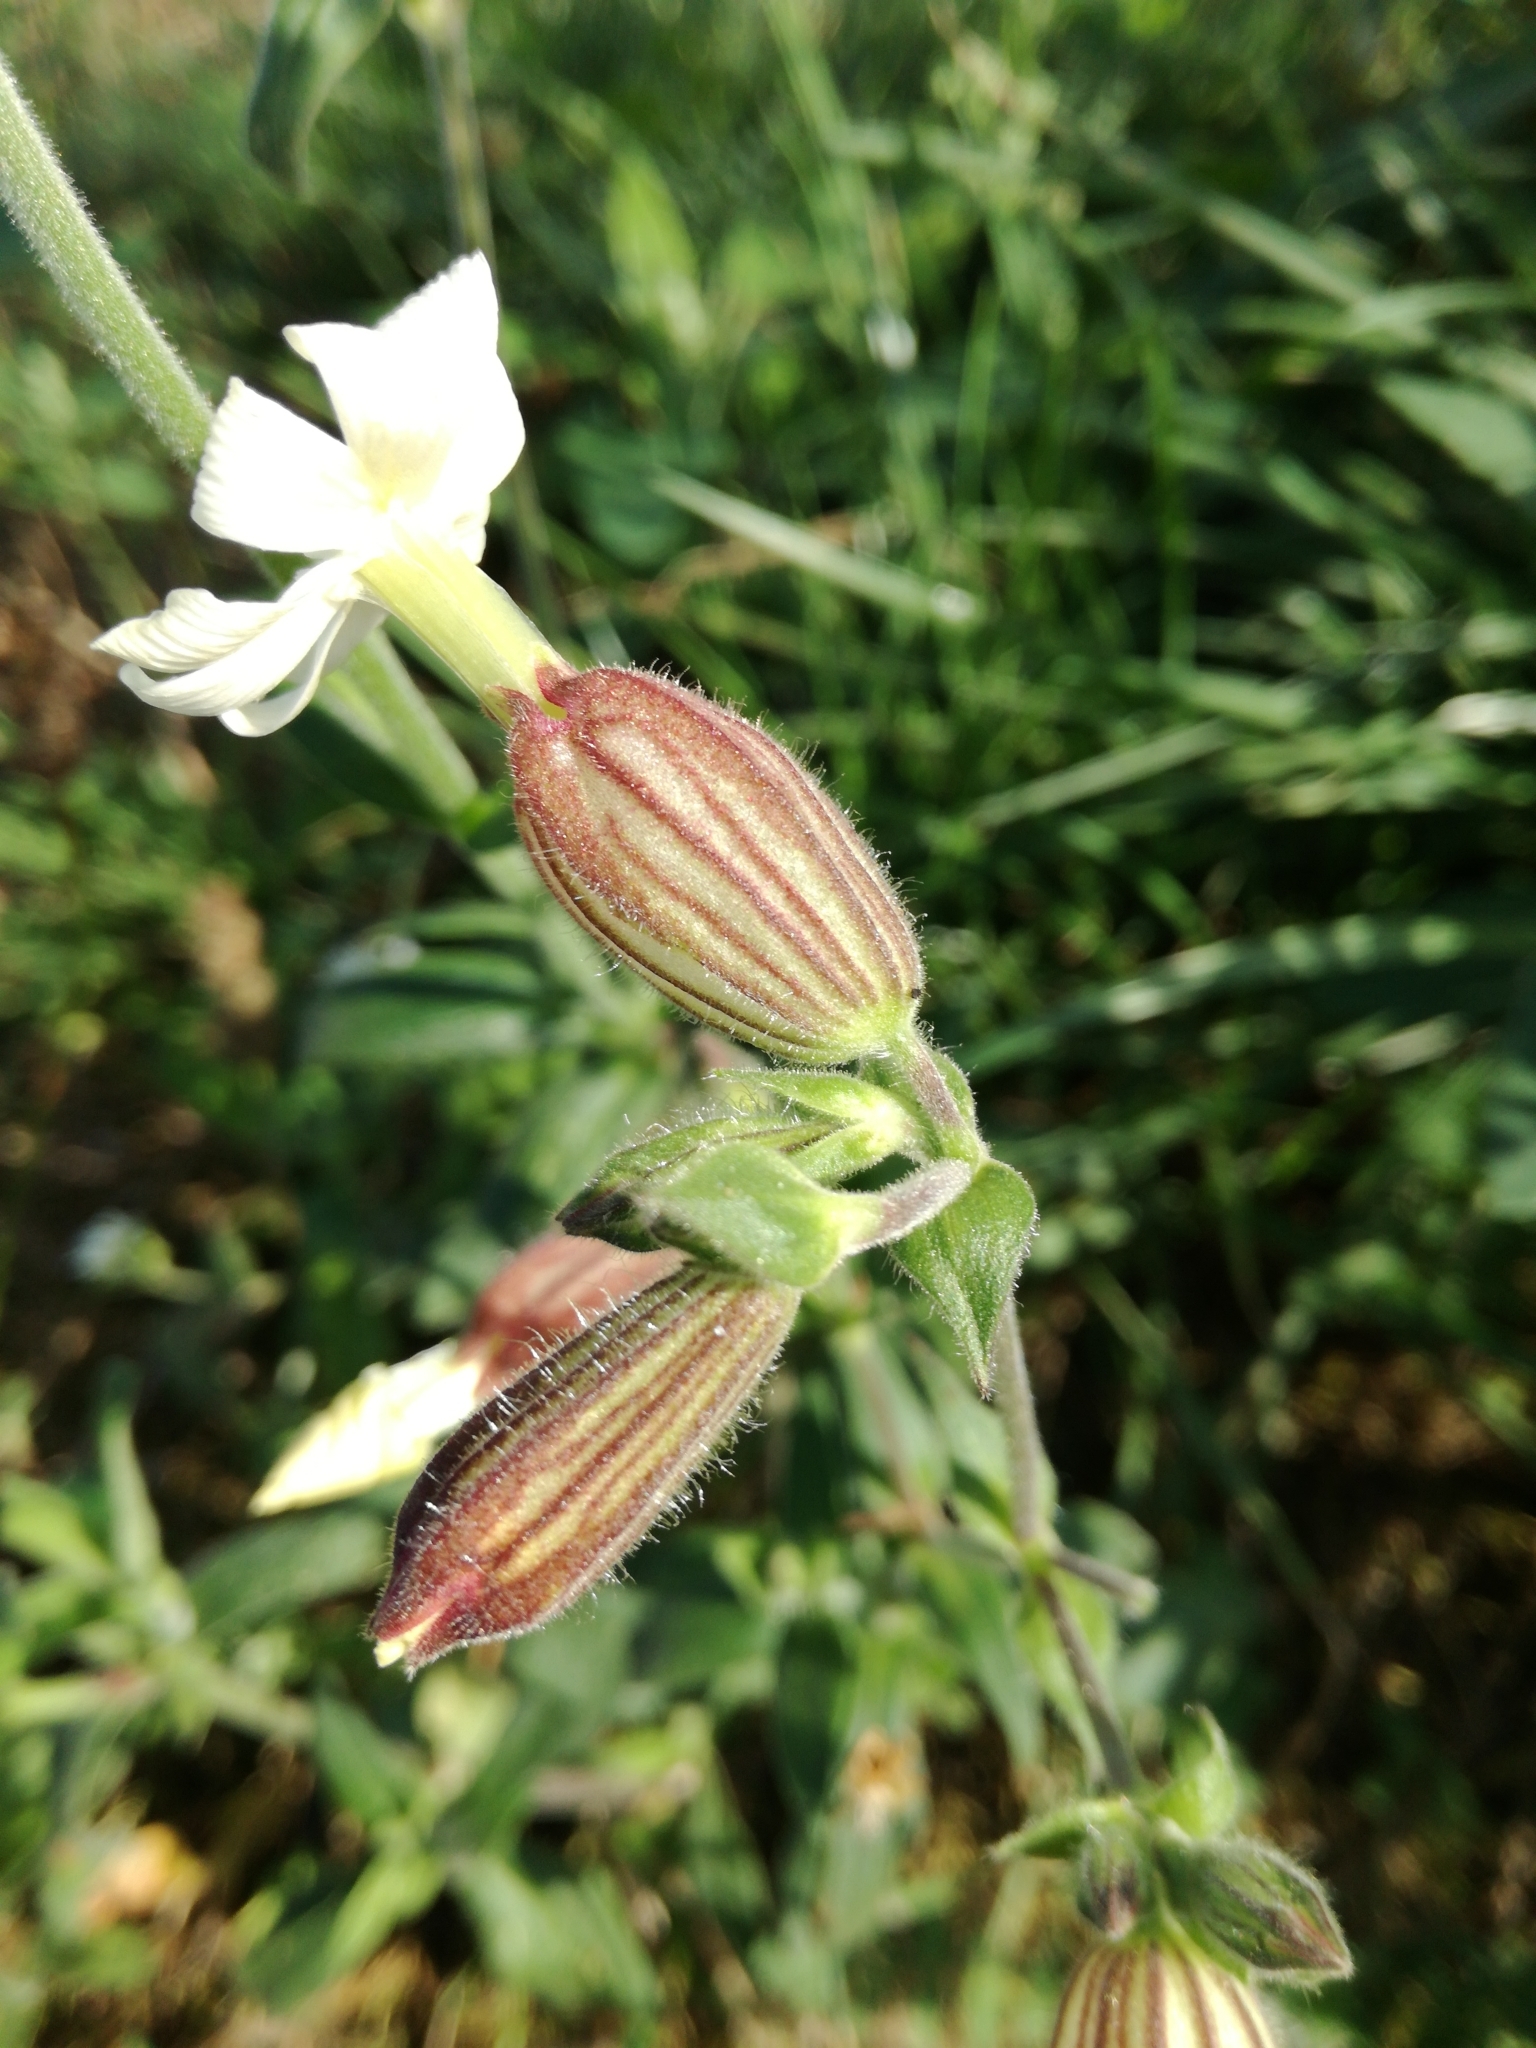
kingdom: Plantae
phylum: Tracheophyta
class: Magnoliopsida
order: Caryophyllales
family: Caryophyllaceae
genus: Silene
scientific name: Silene latifolia
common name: White campion
